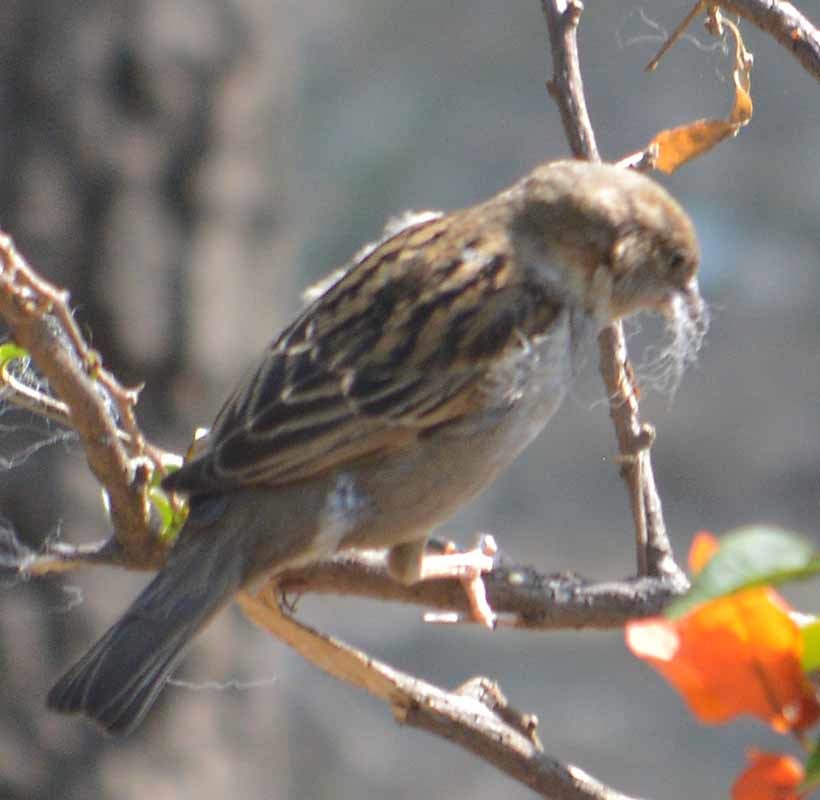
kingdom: Animalia
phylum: Chordata
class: Aves
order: Passeriformes
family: Passeridae
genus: Passer
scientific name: Passer domesticus
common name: House sparrow
